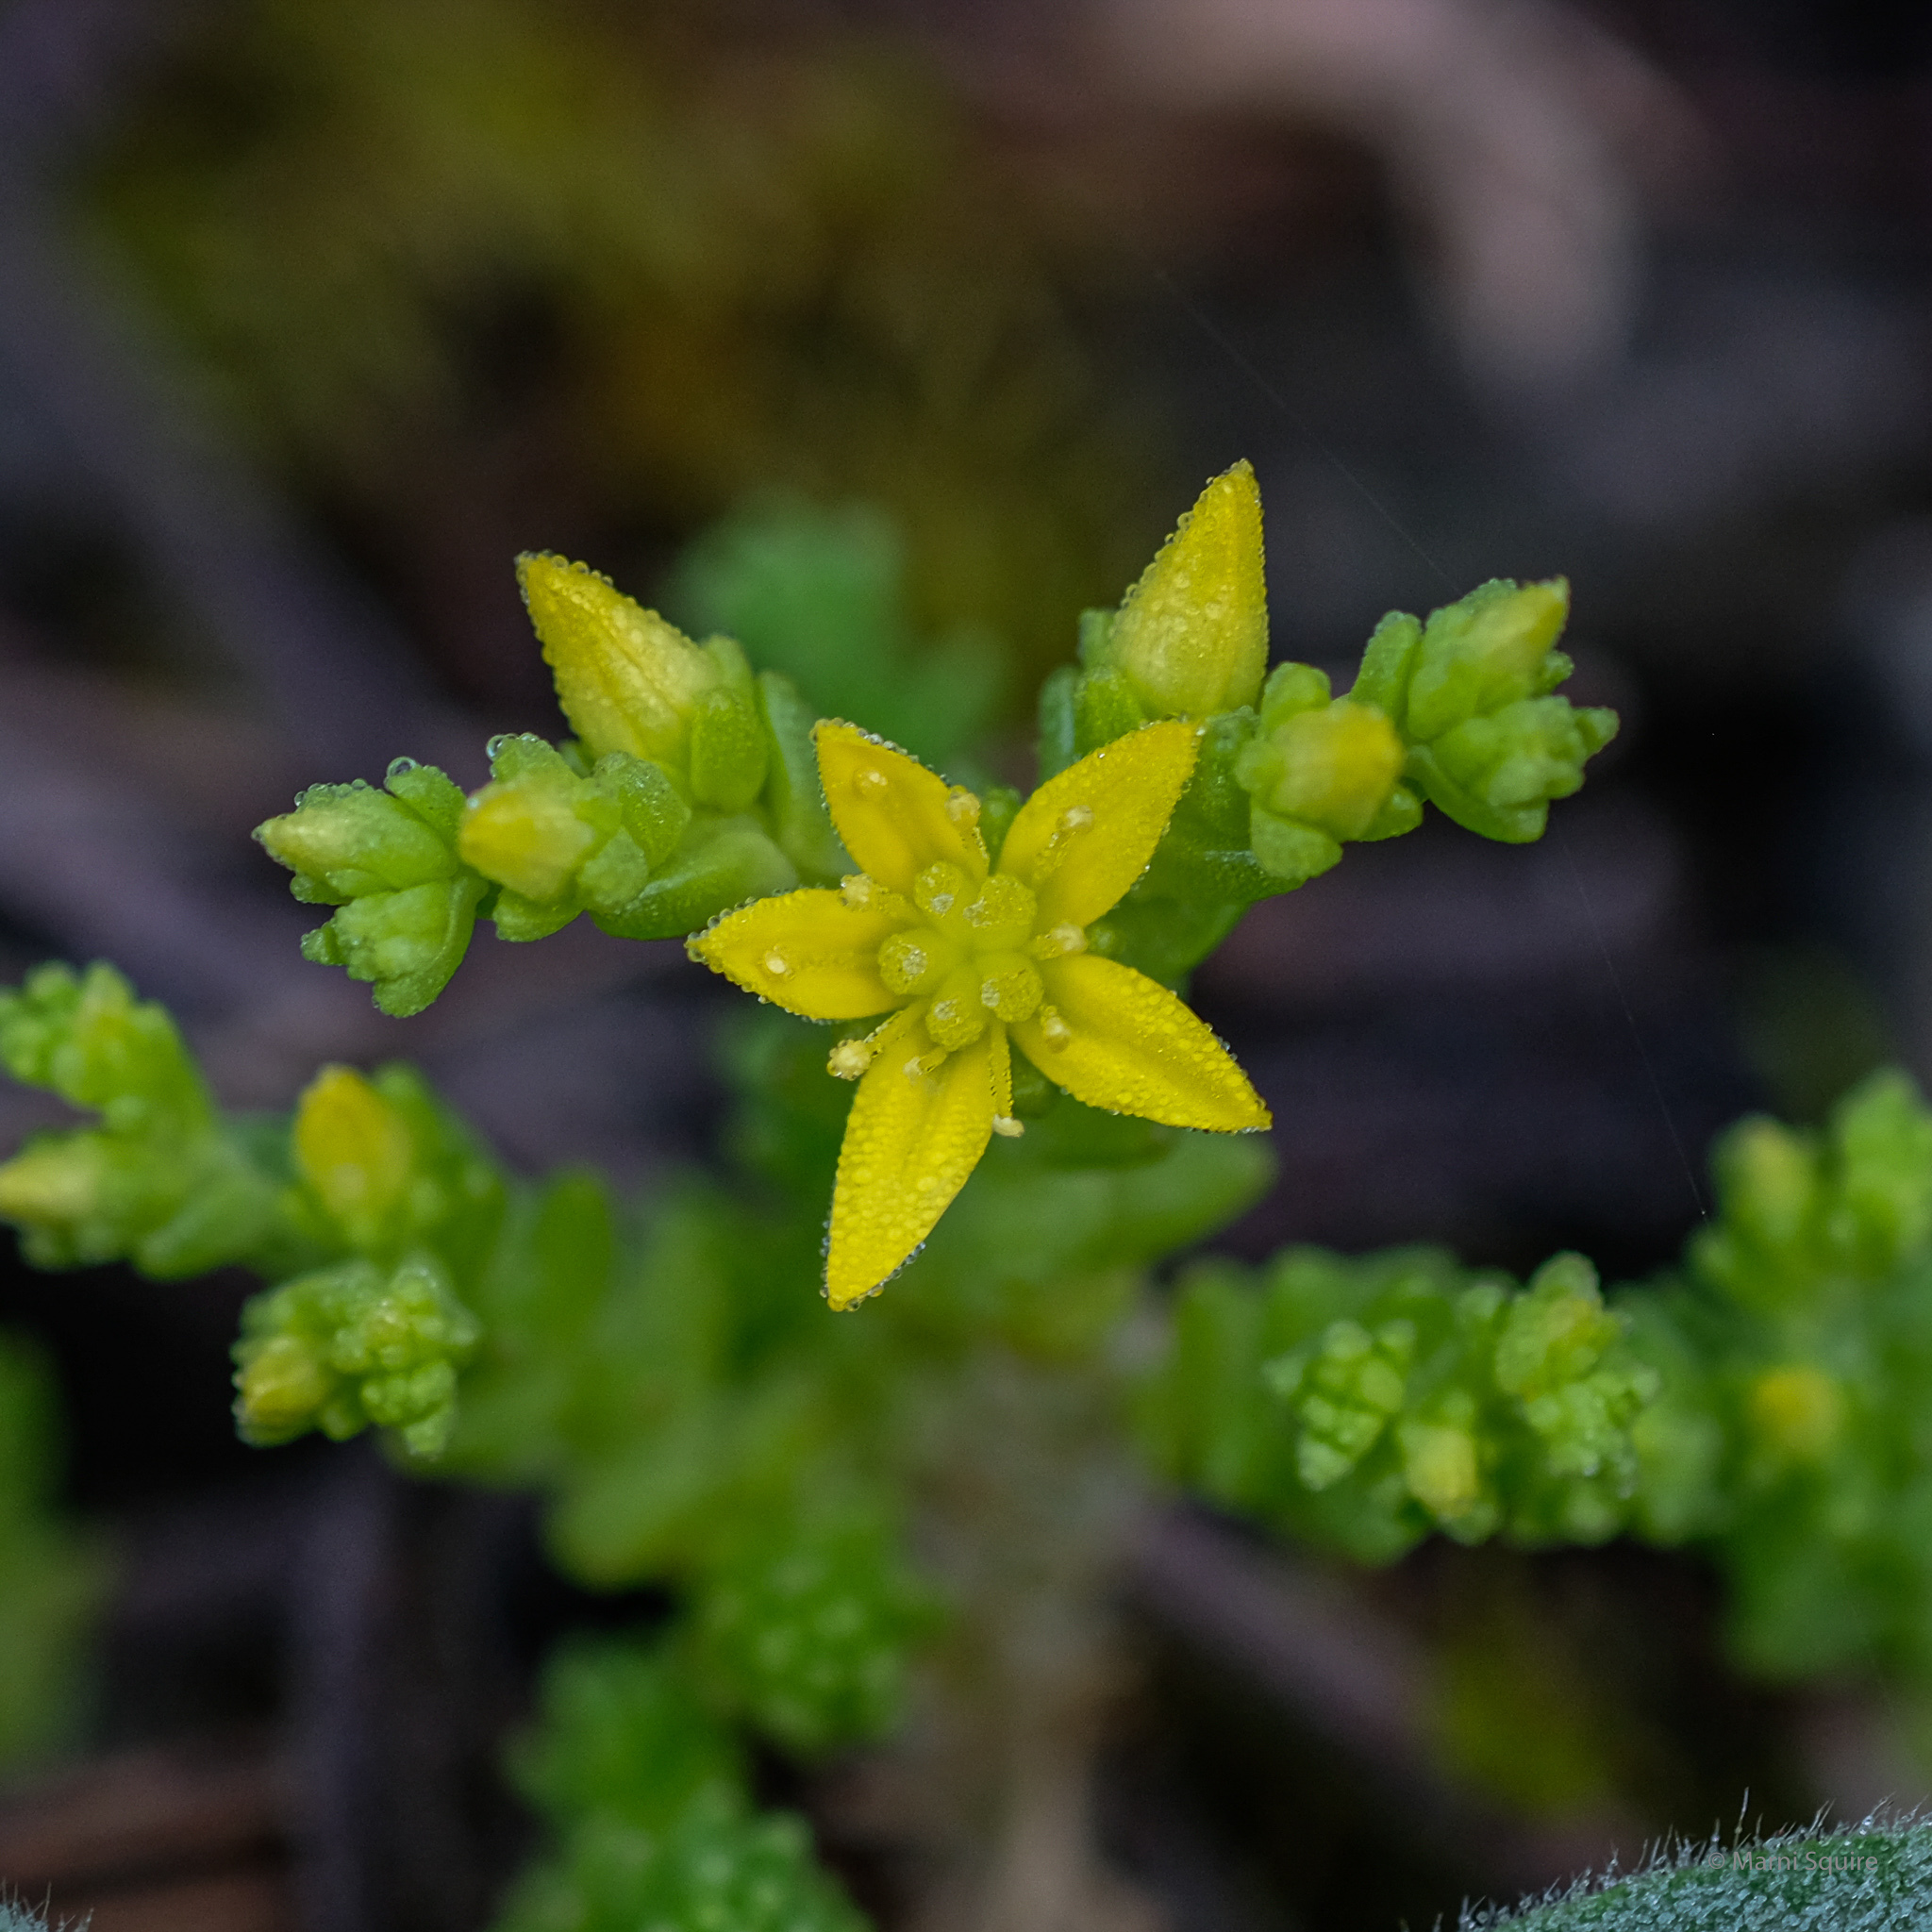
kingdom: Plantae
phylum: Tracheophyta
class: Magnoliopsida
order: Saxifragales
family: Crassulaceae
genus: Sedum
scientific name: Sedum acre
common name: Biting stonecrop
